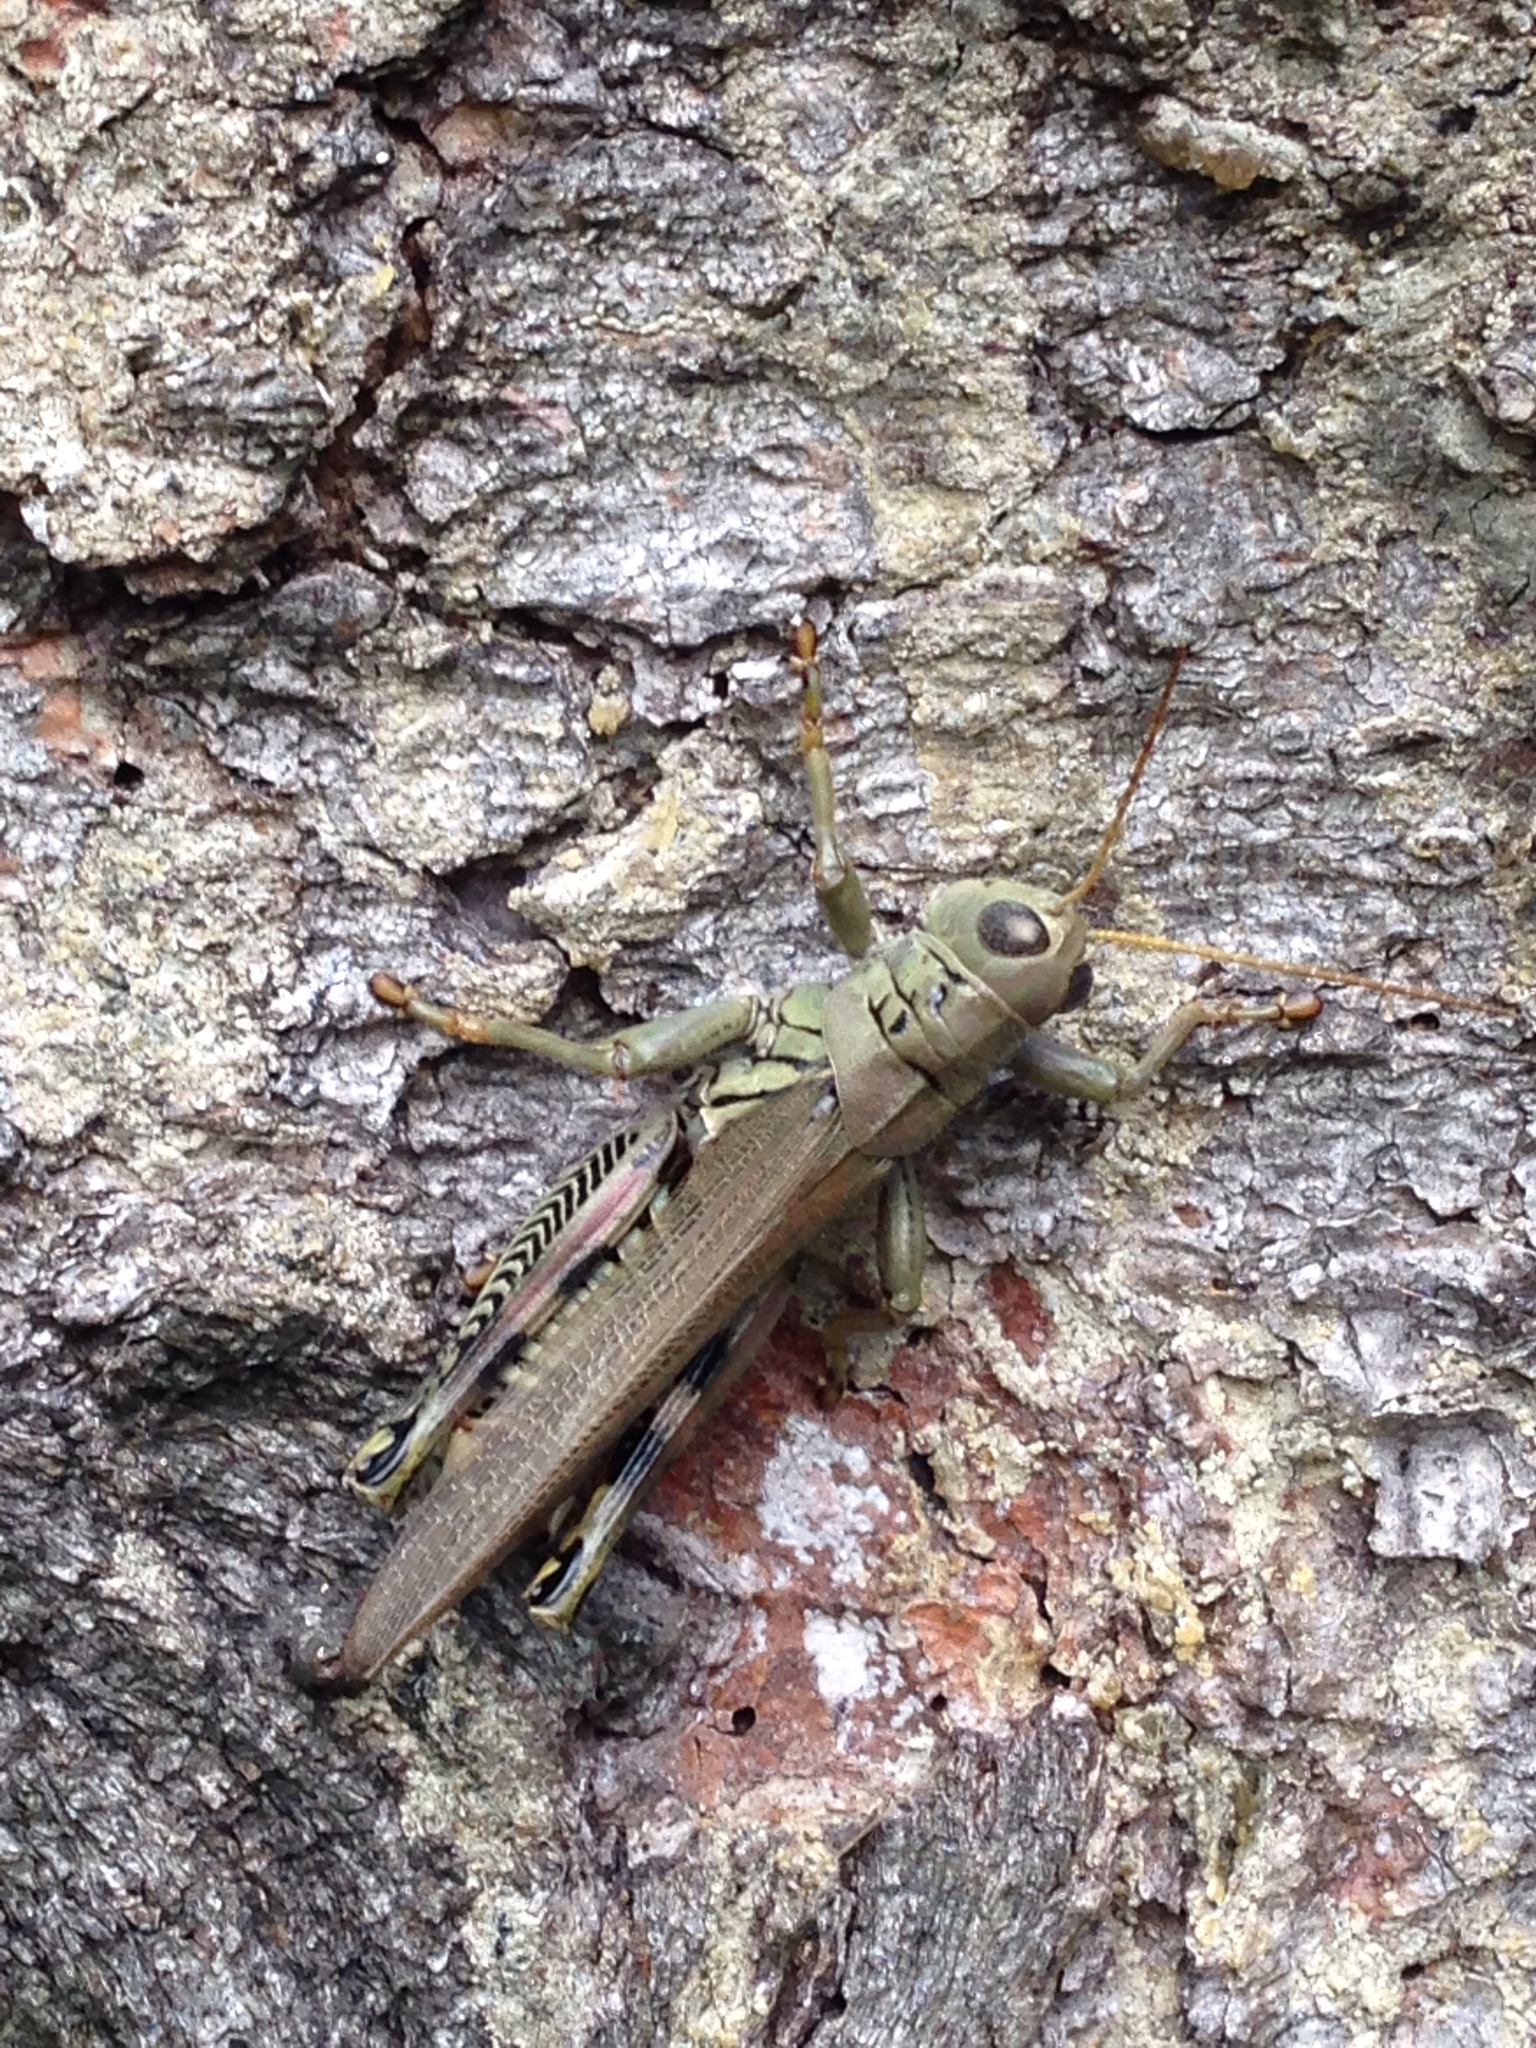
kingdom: Animalia
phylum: Arthropoda
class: Insecta
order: Orthoptera
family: Acrididae
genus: Melanoplus
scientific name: Melanoplus differentialis
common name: Differential grasshopper
